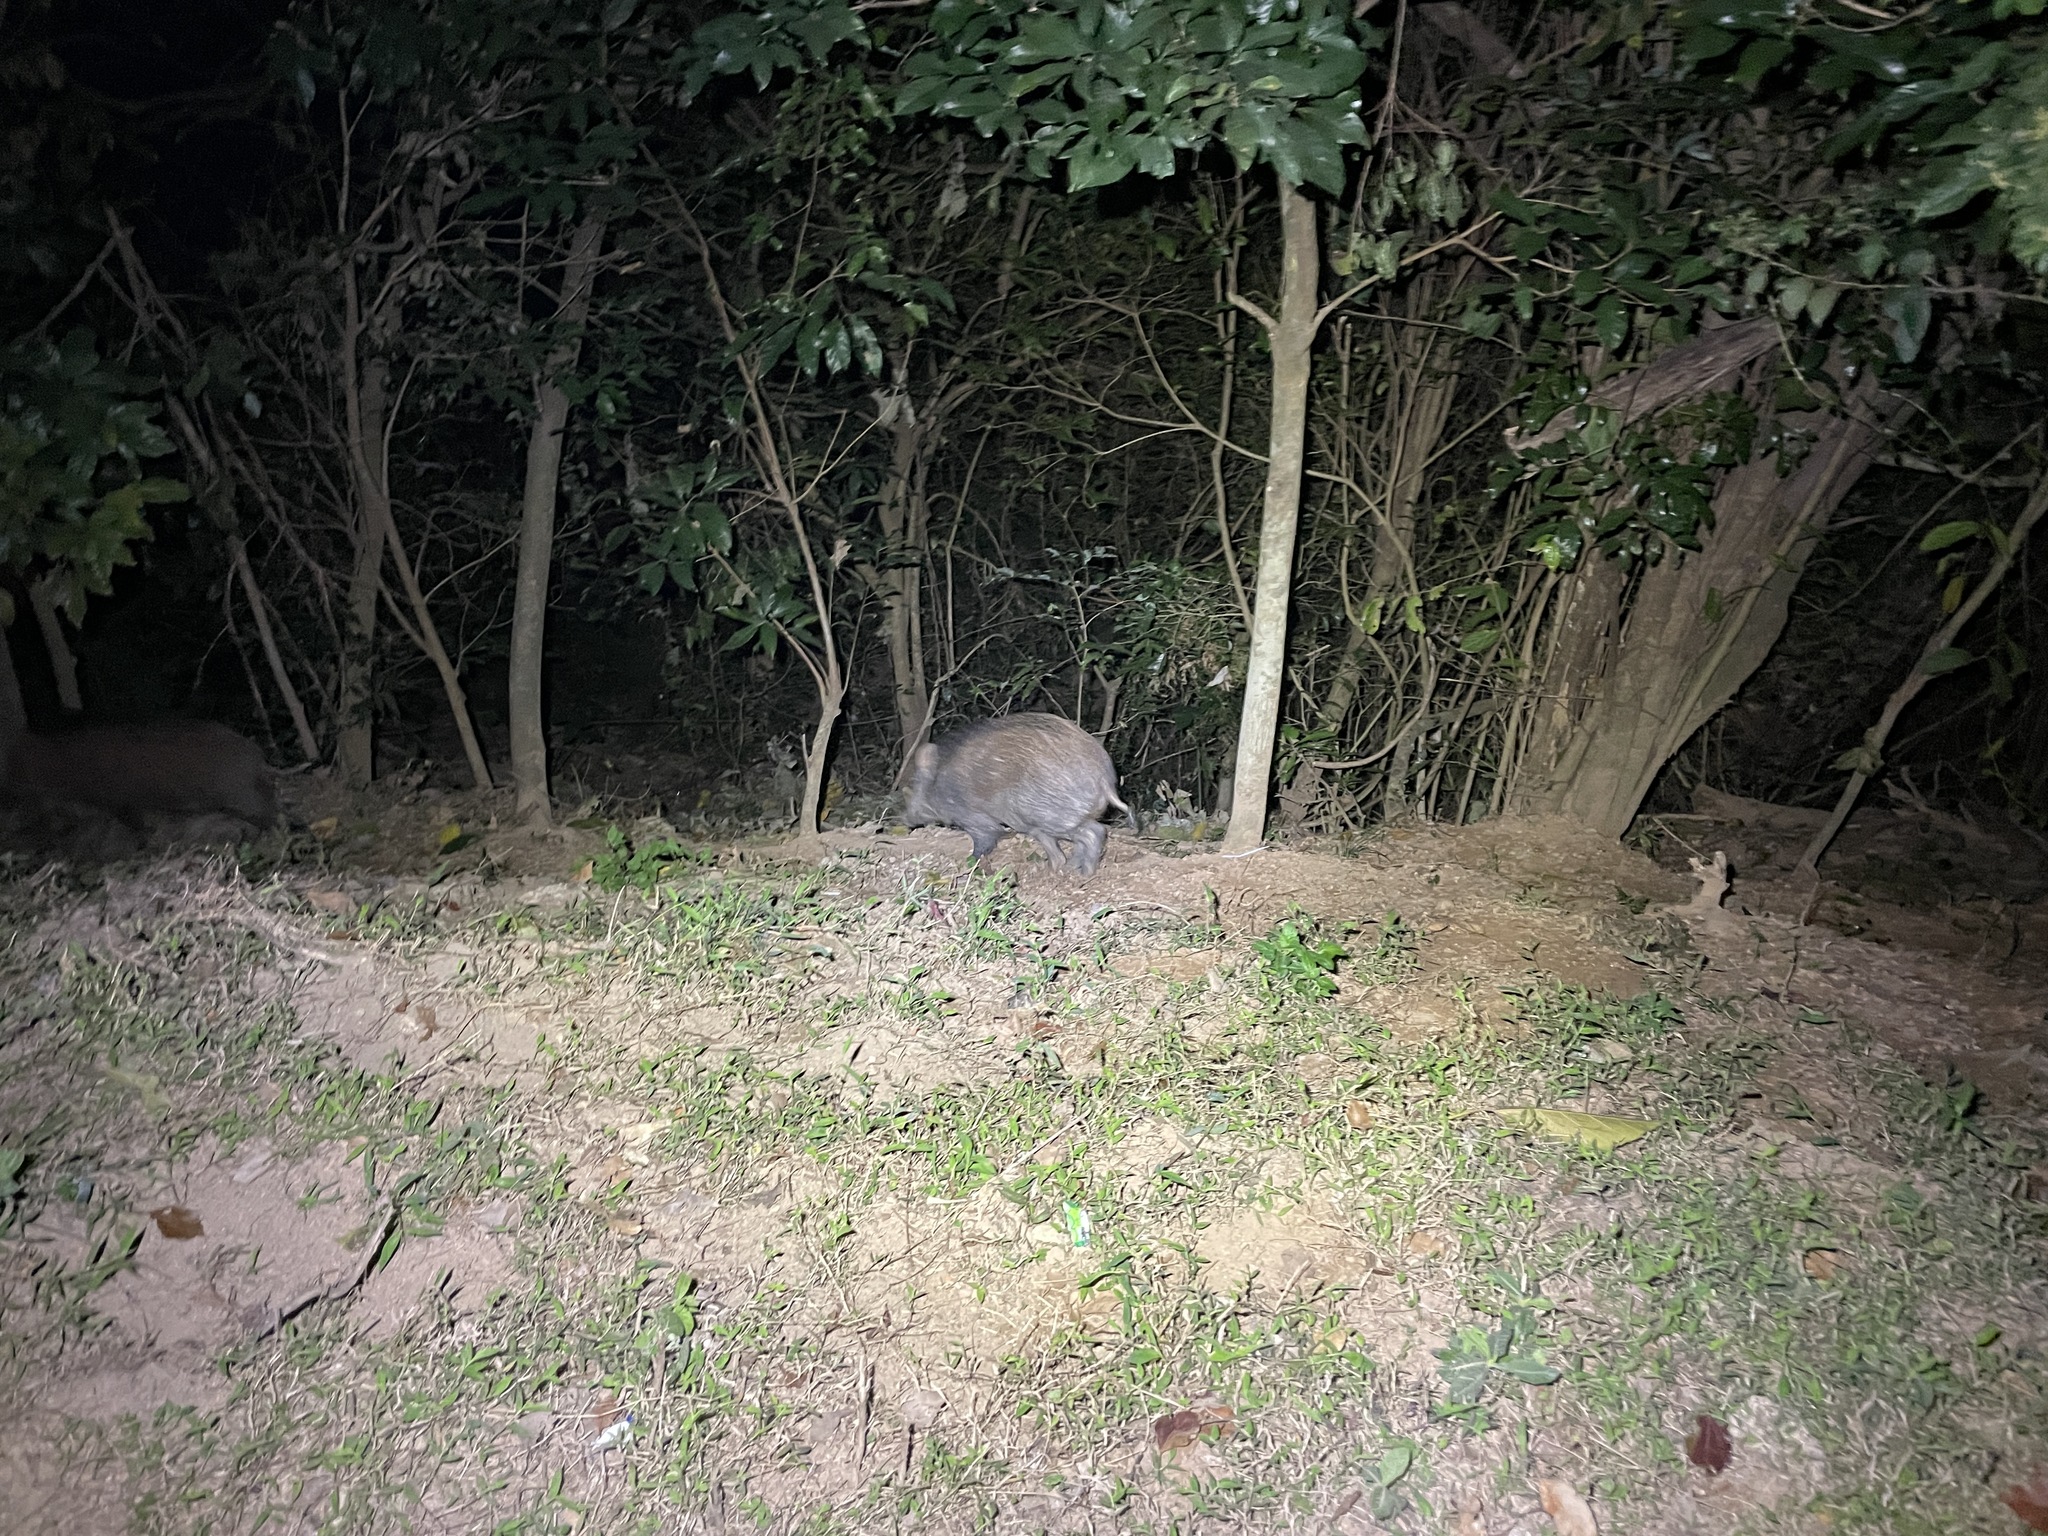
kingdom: Animalia
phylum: Chordata
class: Mammalia
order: Artiodactyla
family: Suidae
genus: Sus
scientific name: Sus scrofa
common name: Wild boar
